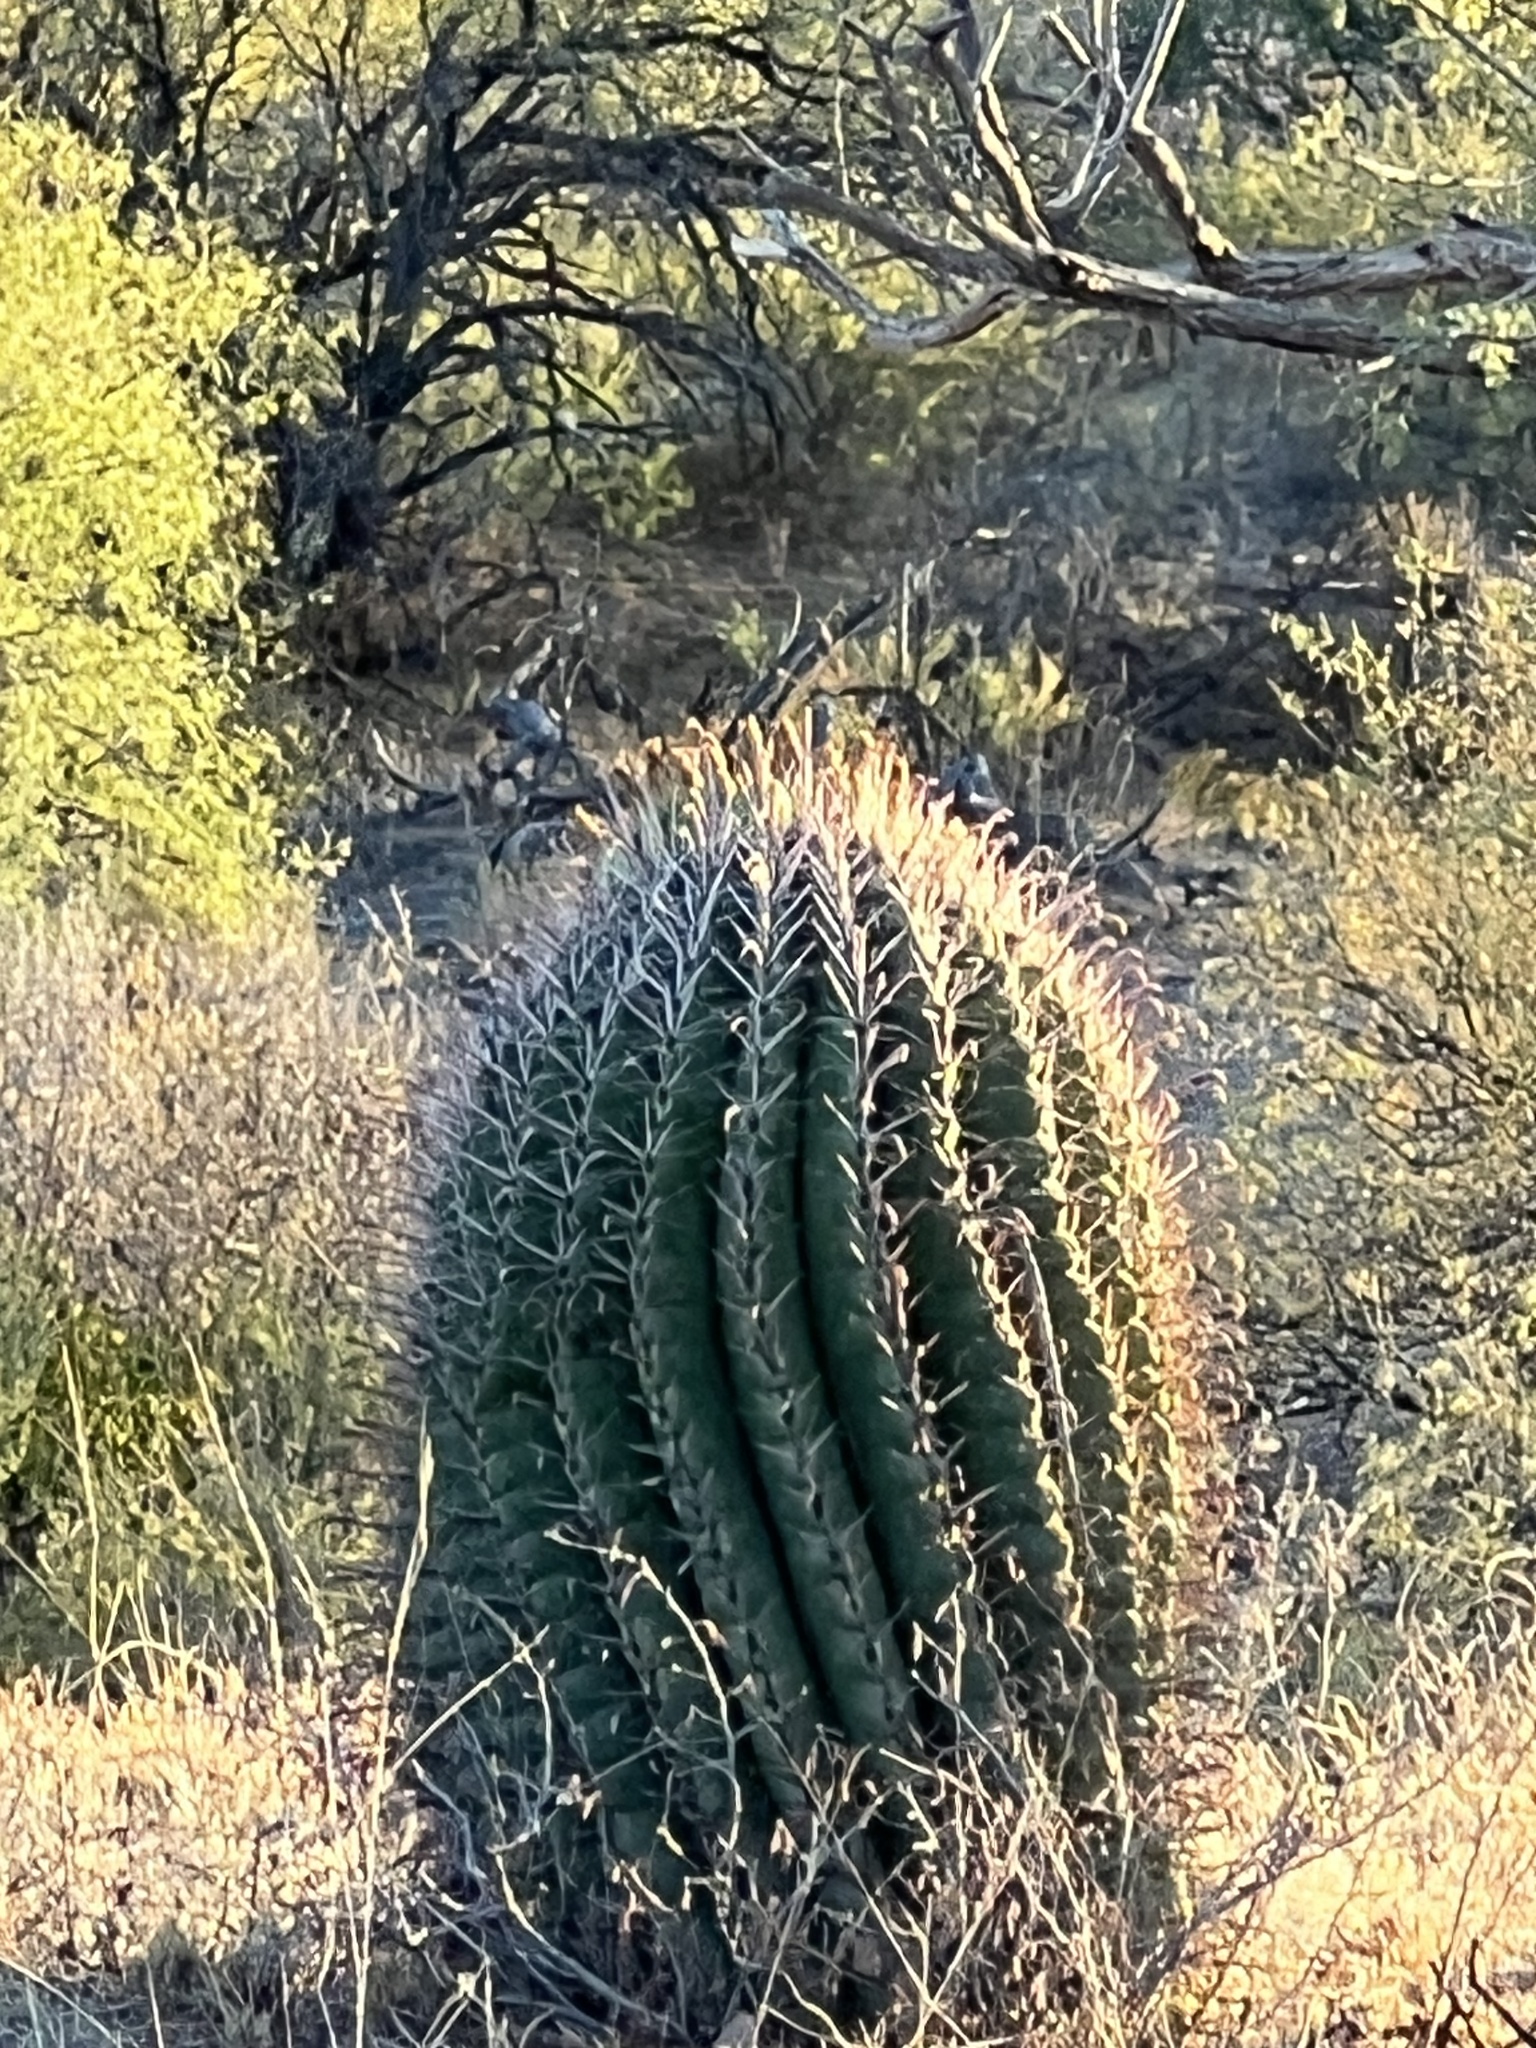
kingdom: Plantae
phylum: Tracheophyta
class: Magnoliopsida
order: Caryophyllales
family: Cactaceae
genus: Ferocactus
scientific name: Ferocactus wislizeni
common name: Candy barrel cactus
